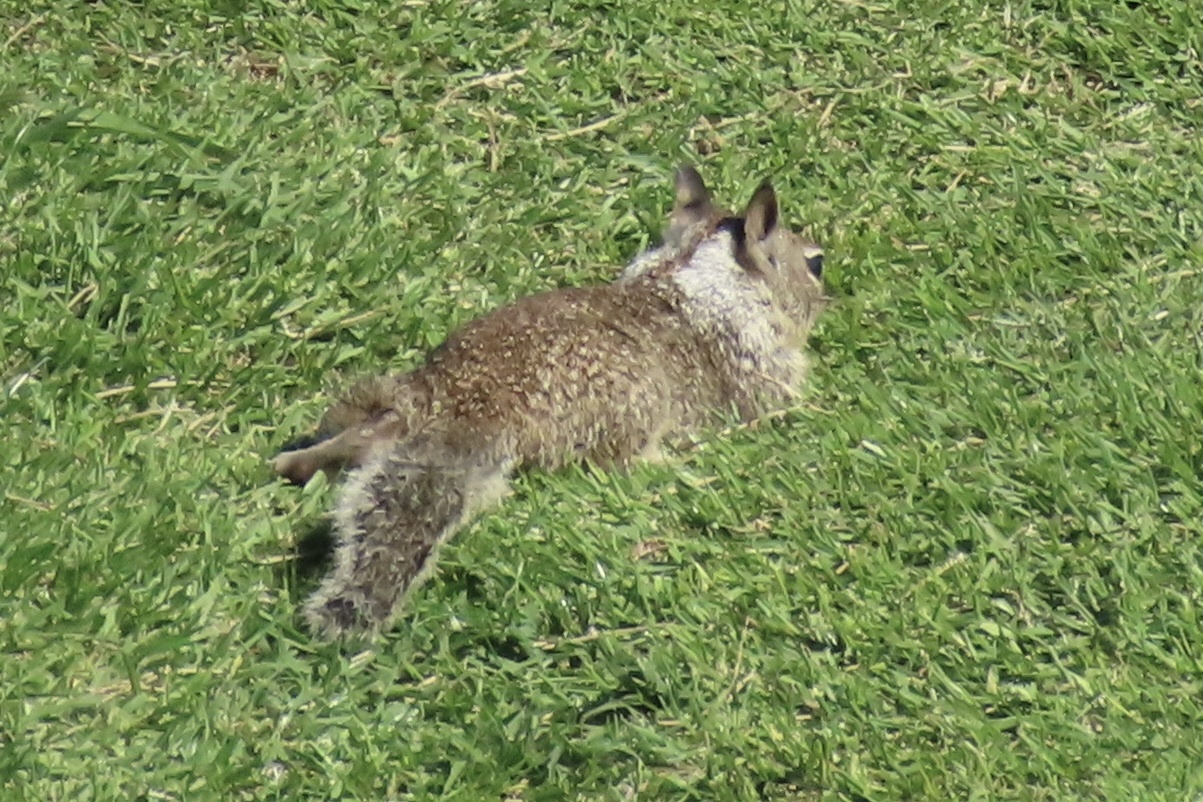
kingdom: Animalia
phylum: Chordata
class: Mammalia
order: Rodentia
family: Sciuridae
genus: Otospermophilus
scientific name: Otospermophilus beecheyi
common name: California ground squirrel
